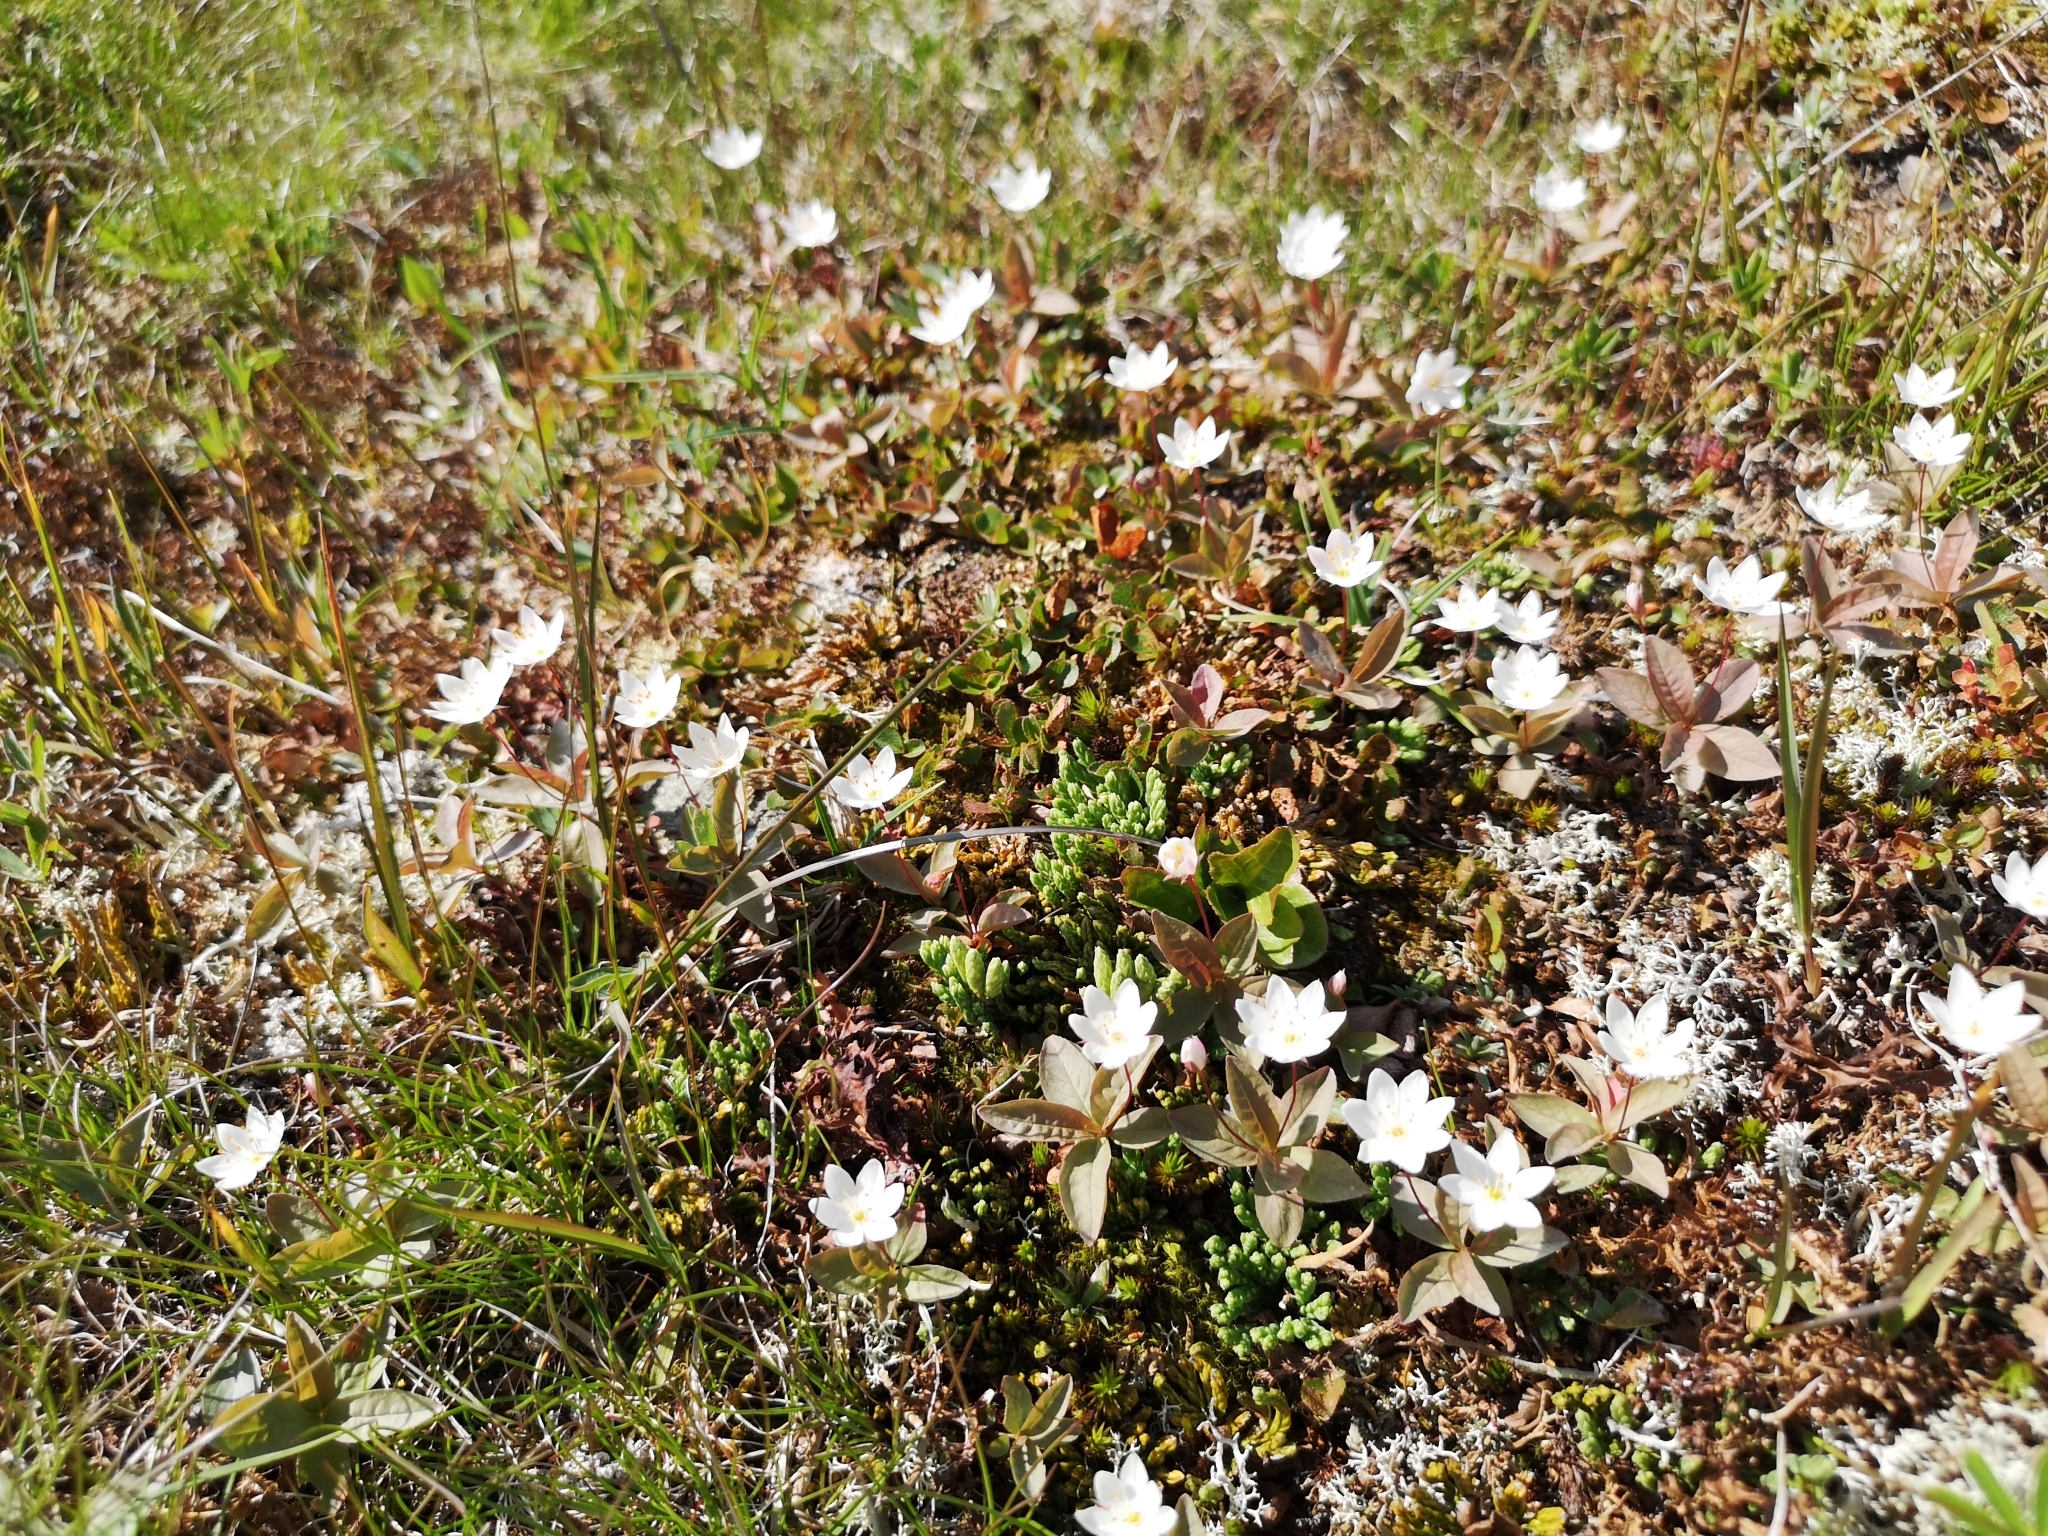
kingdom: Plantae
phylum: Tracheophyta
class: Magnoliopsida
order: Ericales
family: Primulaceae
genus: Lysimachia
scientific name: Lysimachia europaea
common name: Arctic starflower
